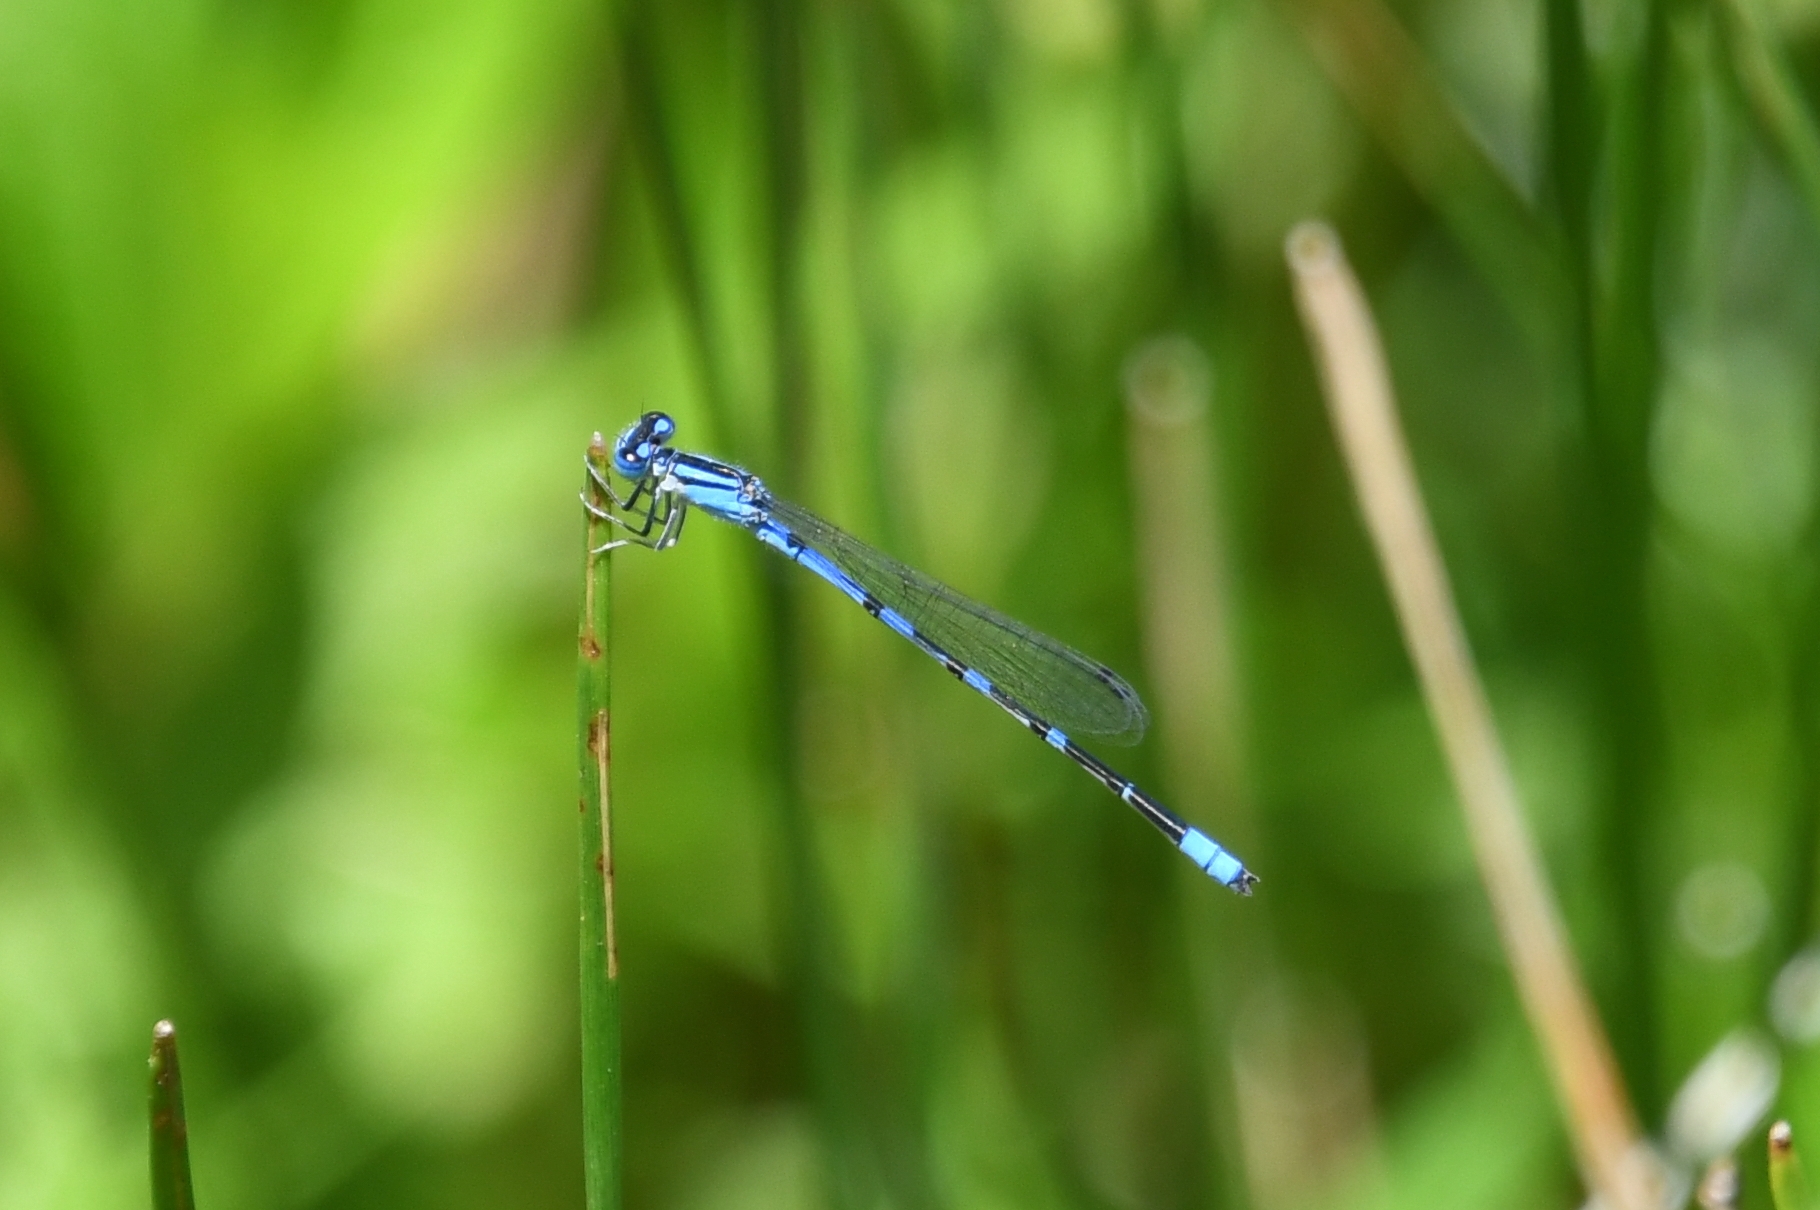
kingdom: Animalia
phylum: Arthropoda
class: Insecta
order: Odonata
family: Coenagrionidae
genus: Enallagma
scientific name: Enallagma praevarum
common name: Arroyo bluet
